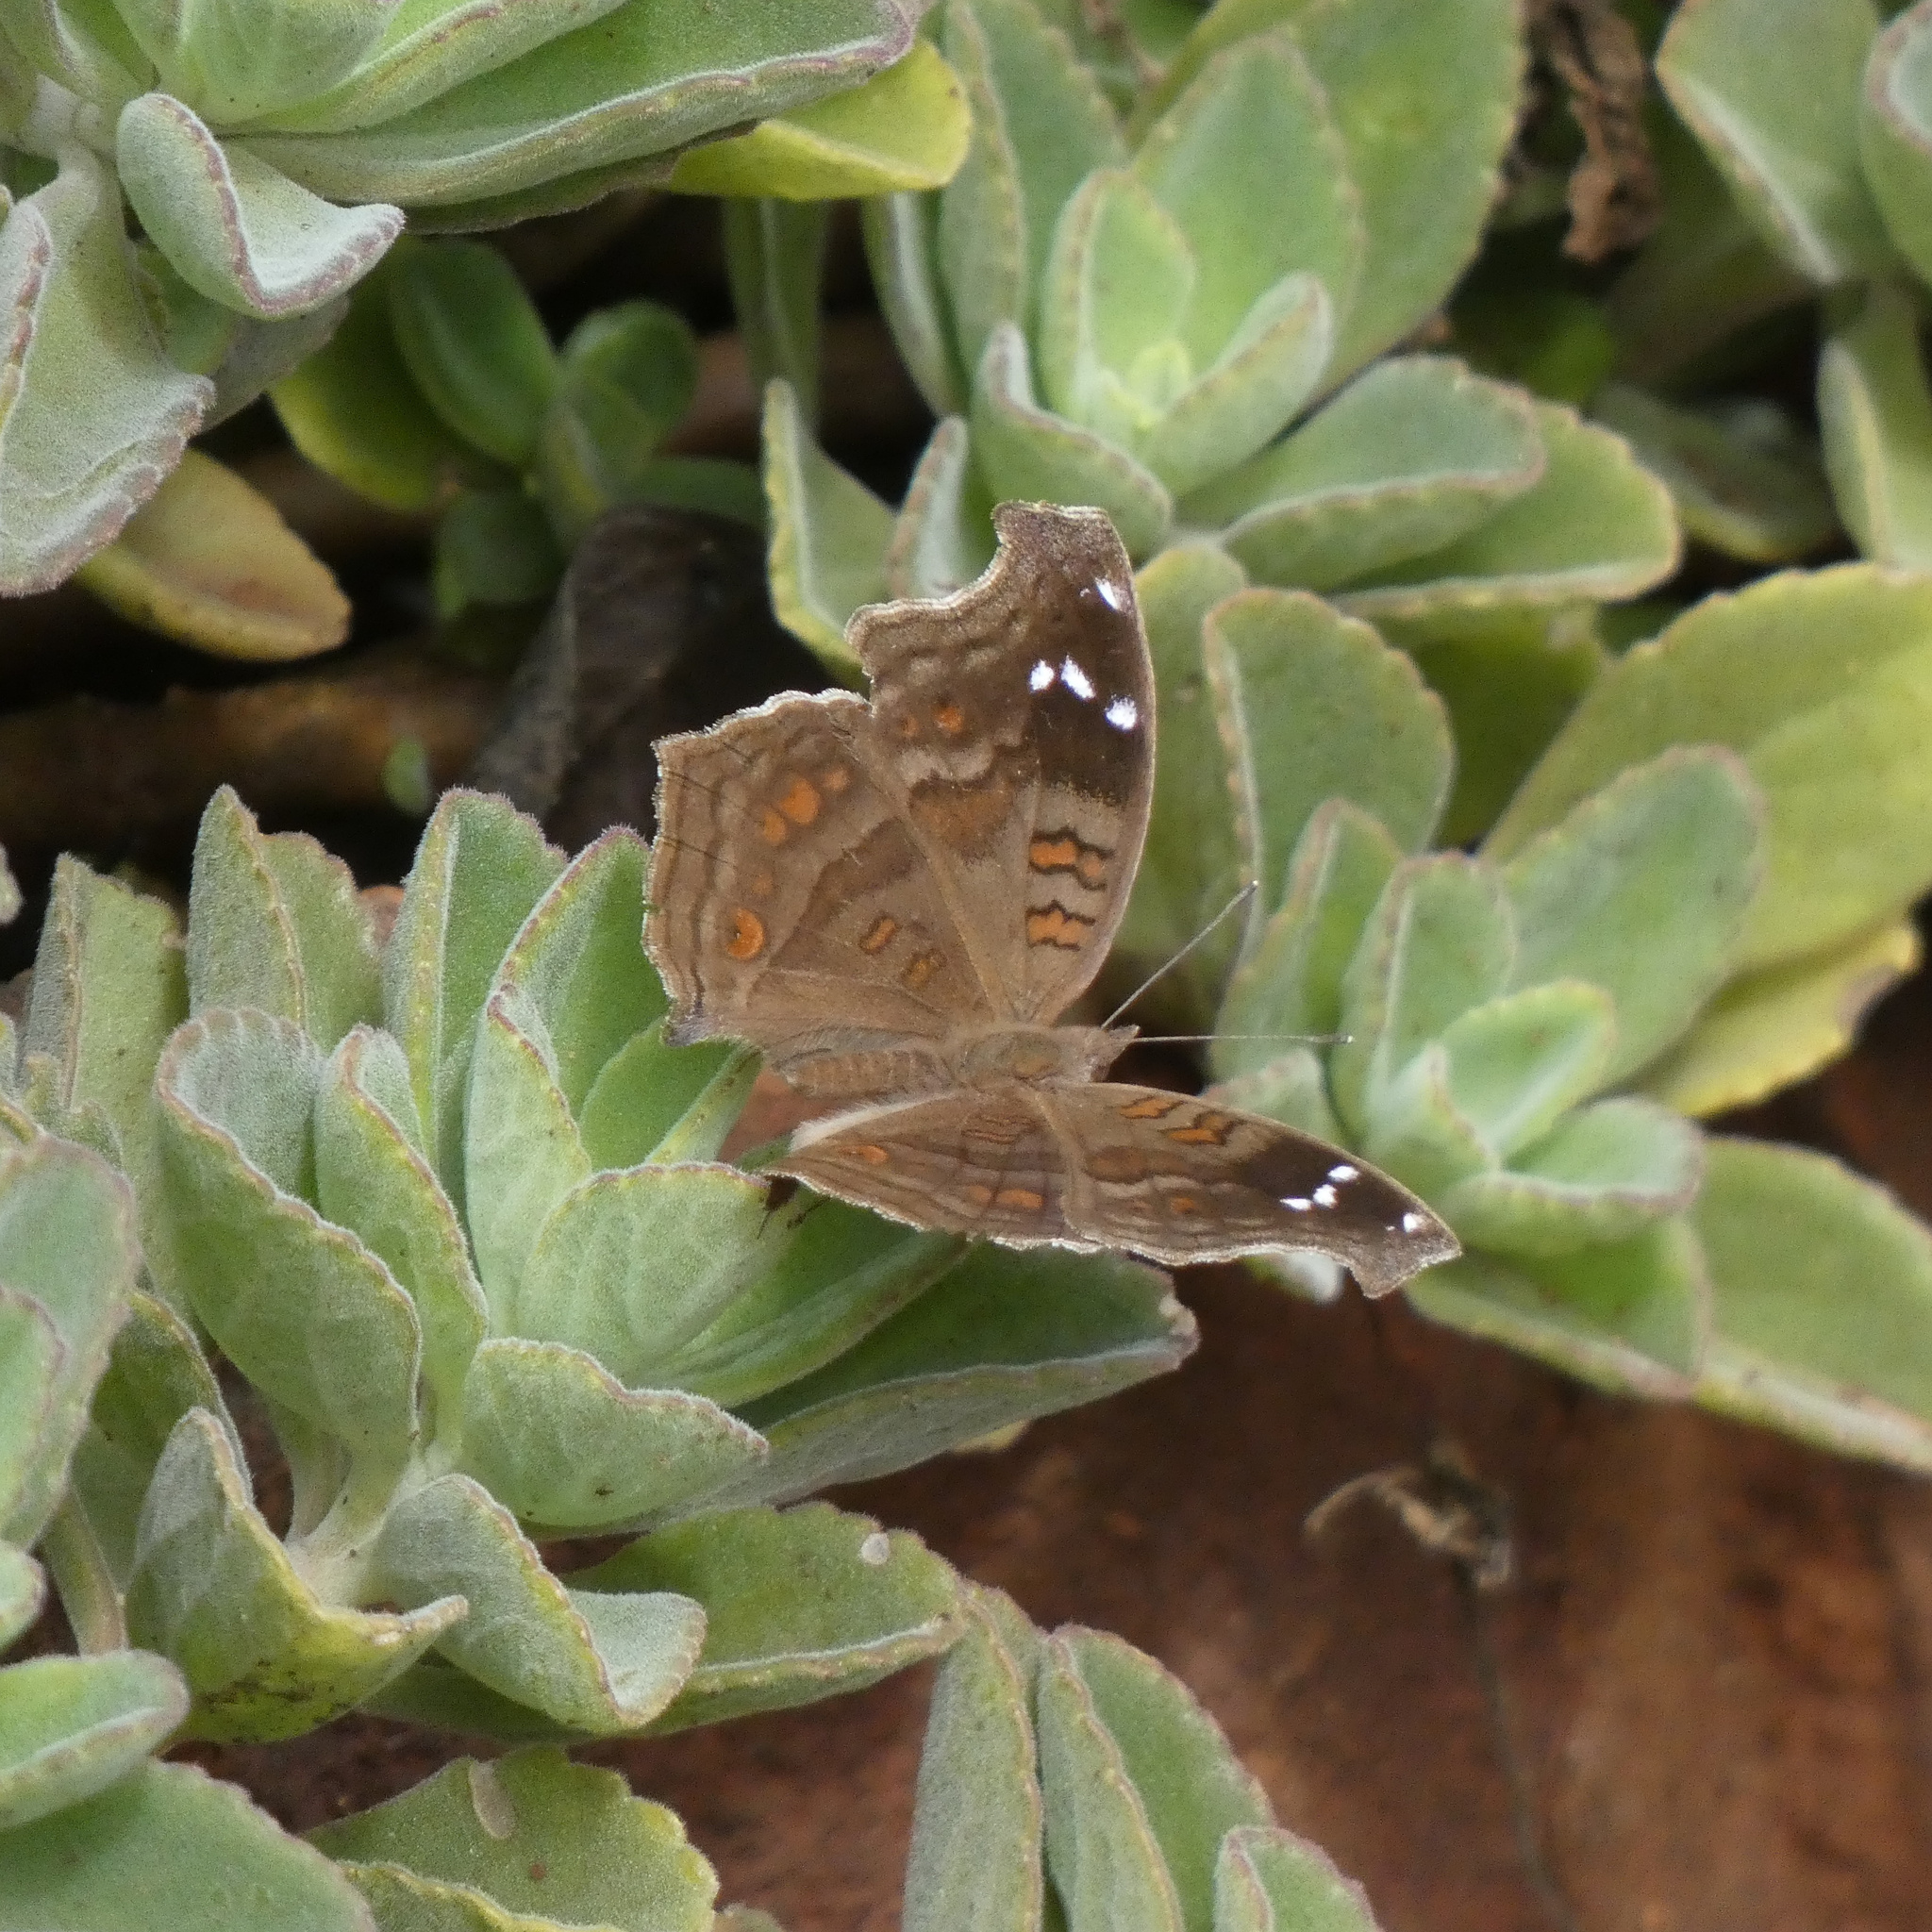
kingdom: Animalia
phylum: Arthropoda
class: Insecta
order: Lepidoptera
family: Nymphalidae
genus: Junonia
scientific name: Junonia natalica
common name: Brown pansy
